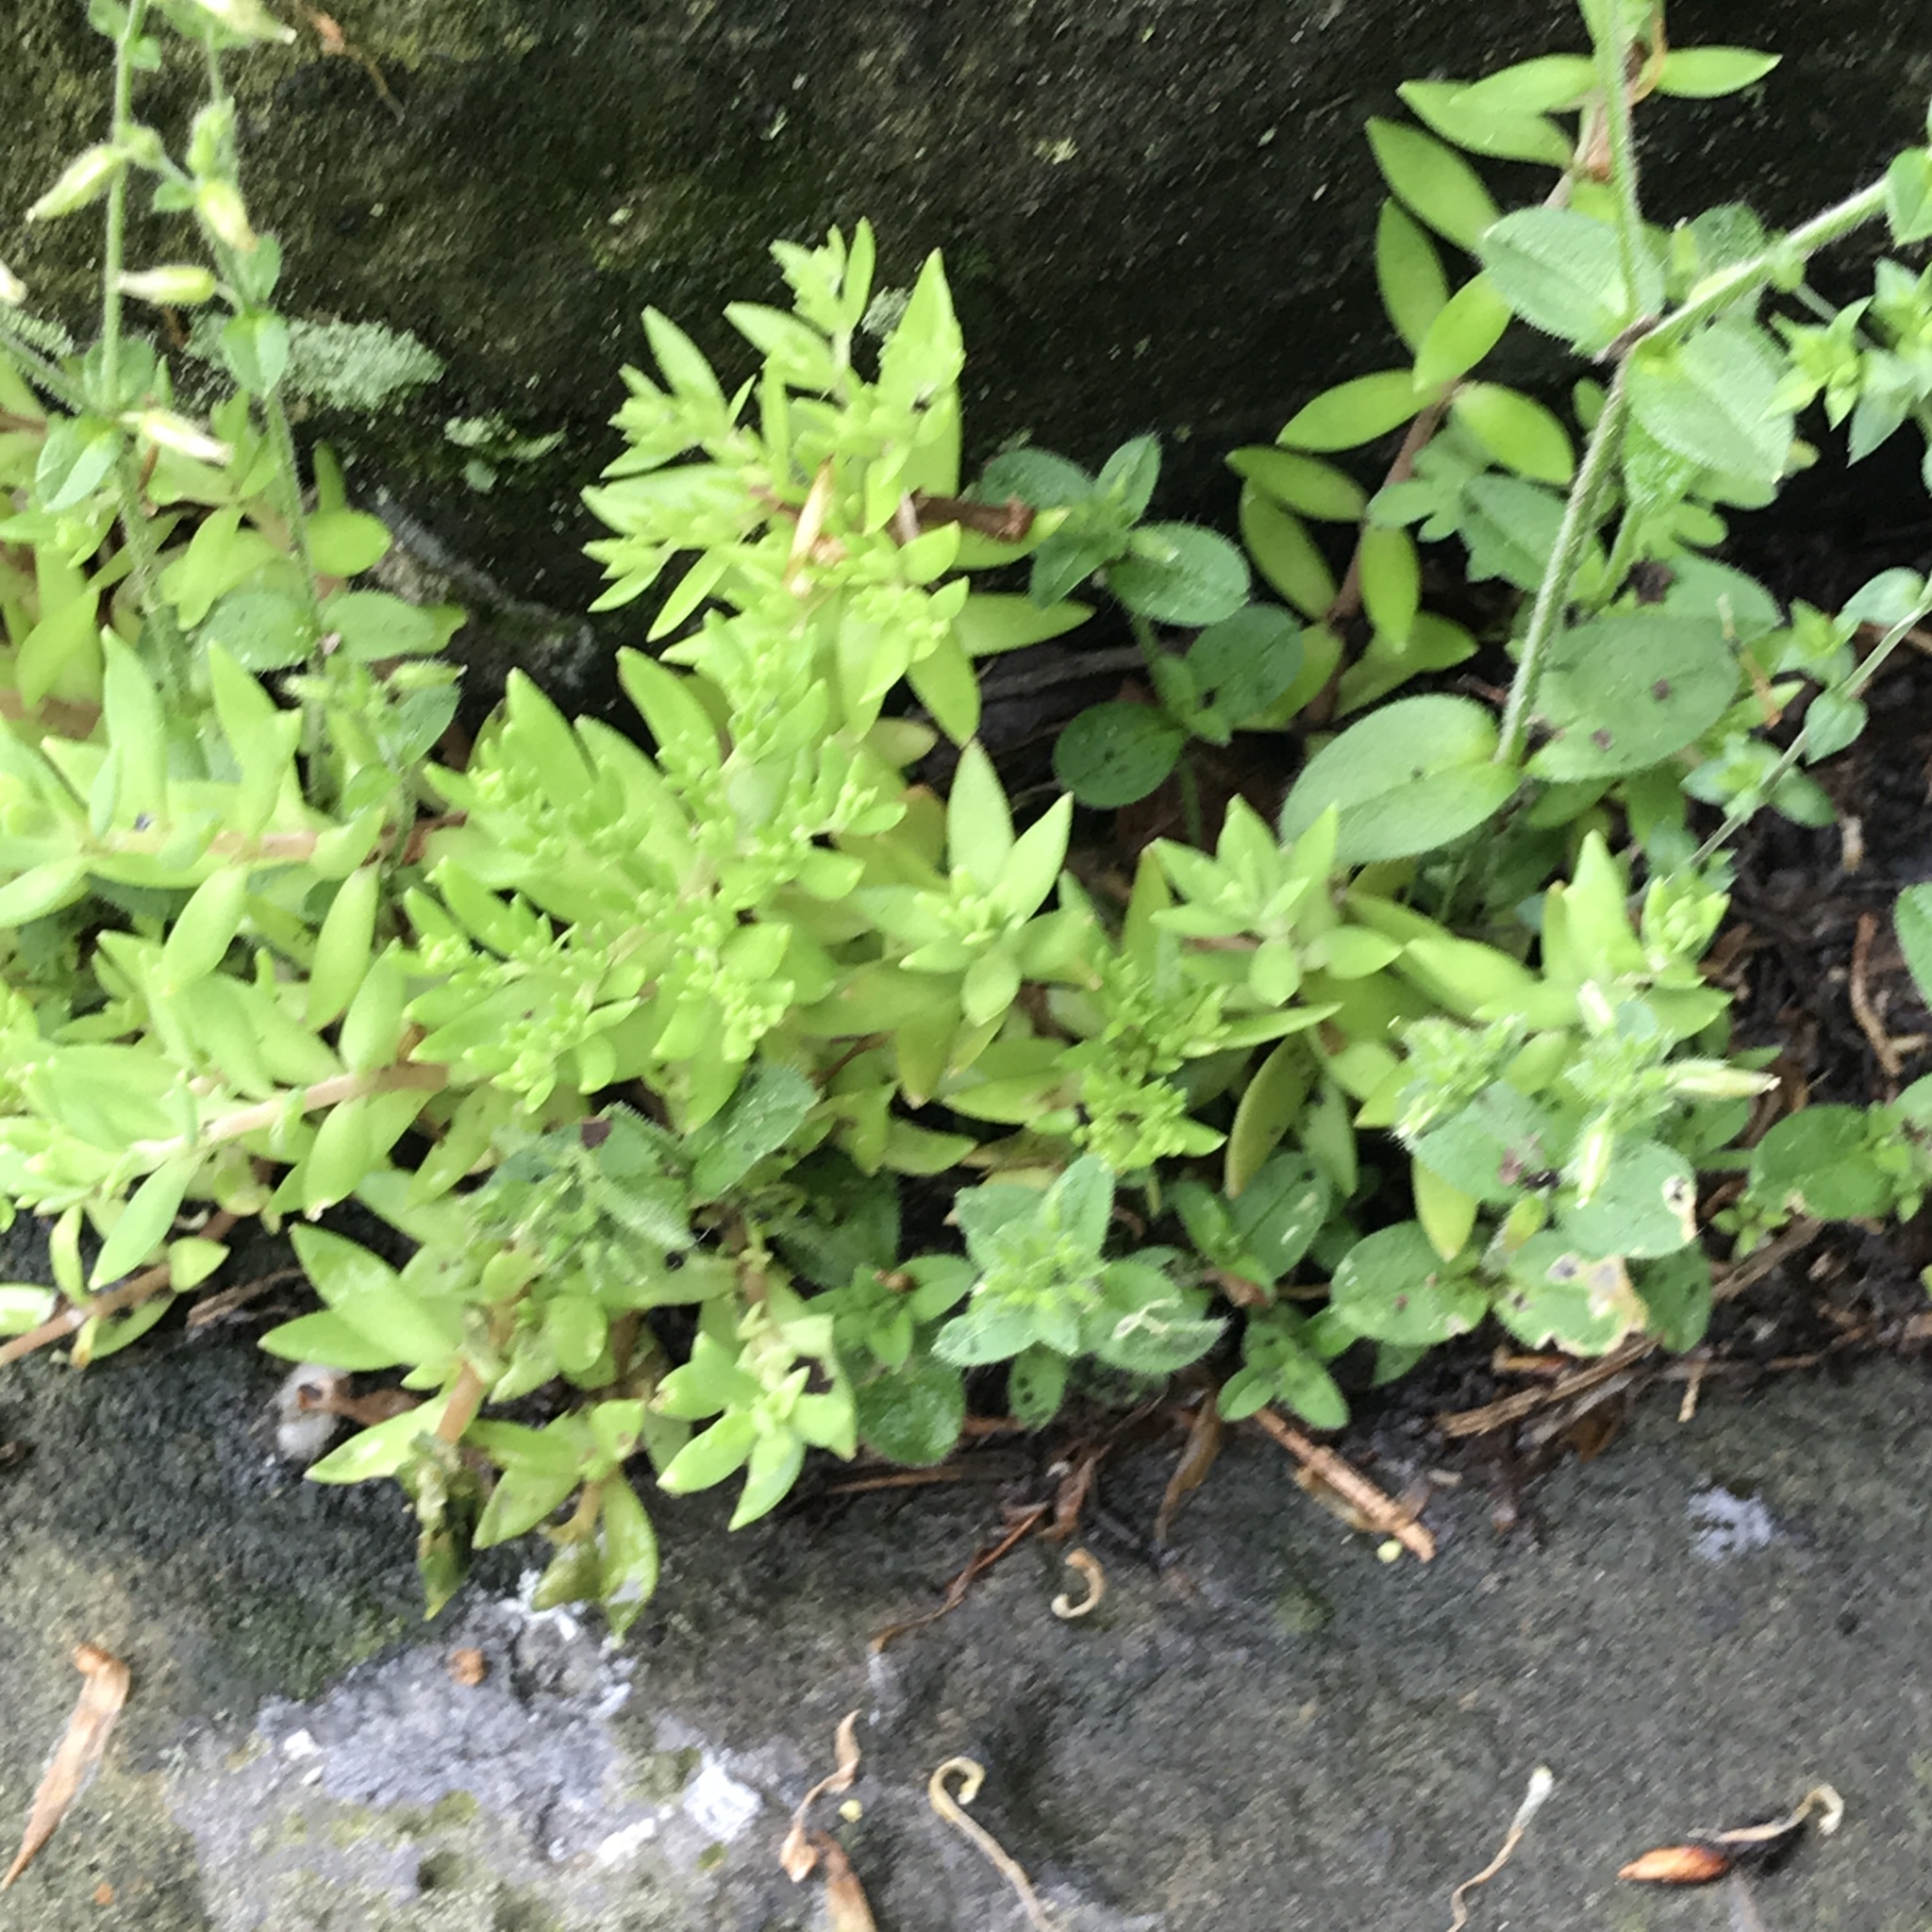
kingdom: Plantae
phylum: Tracheophyta
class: Magnoliopsida
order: Saxifragales
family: Crassulaceae
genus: Sedum
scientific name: Sedum sarmentosum
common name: Stringy stonecrop
